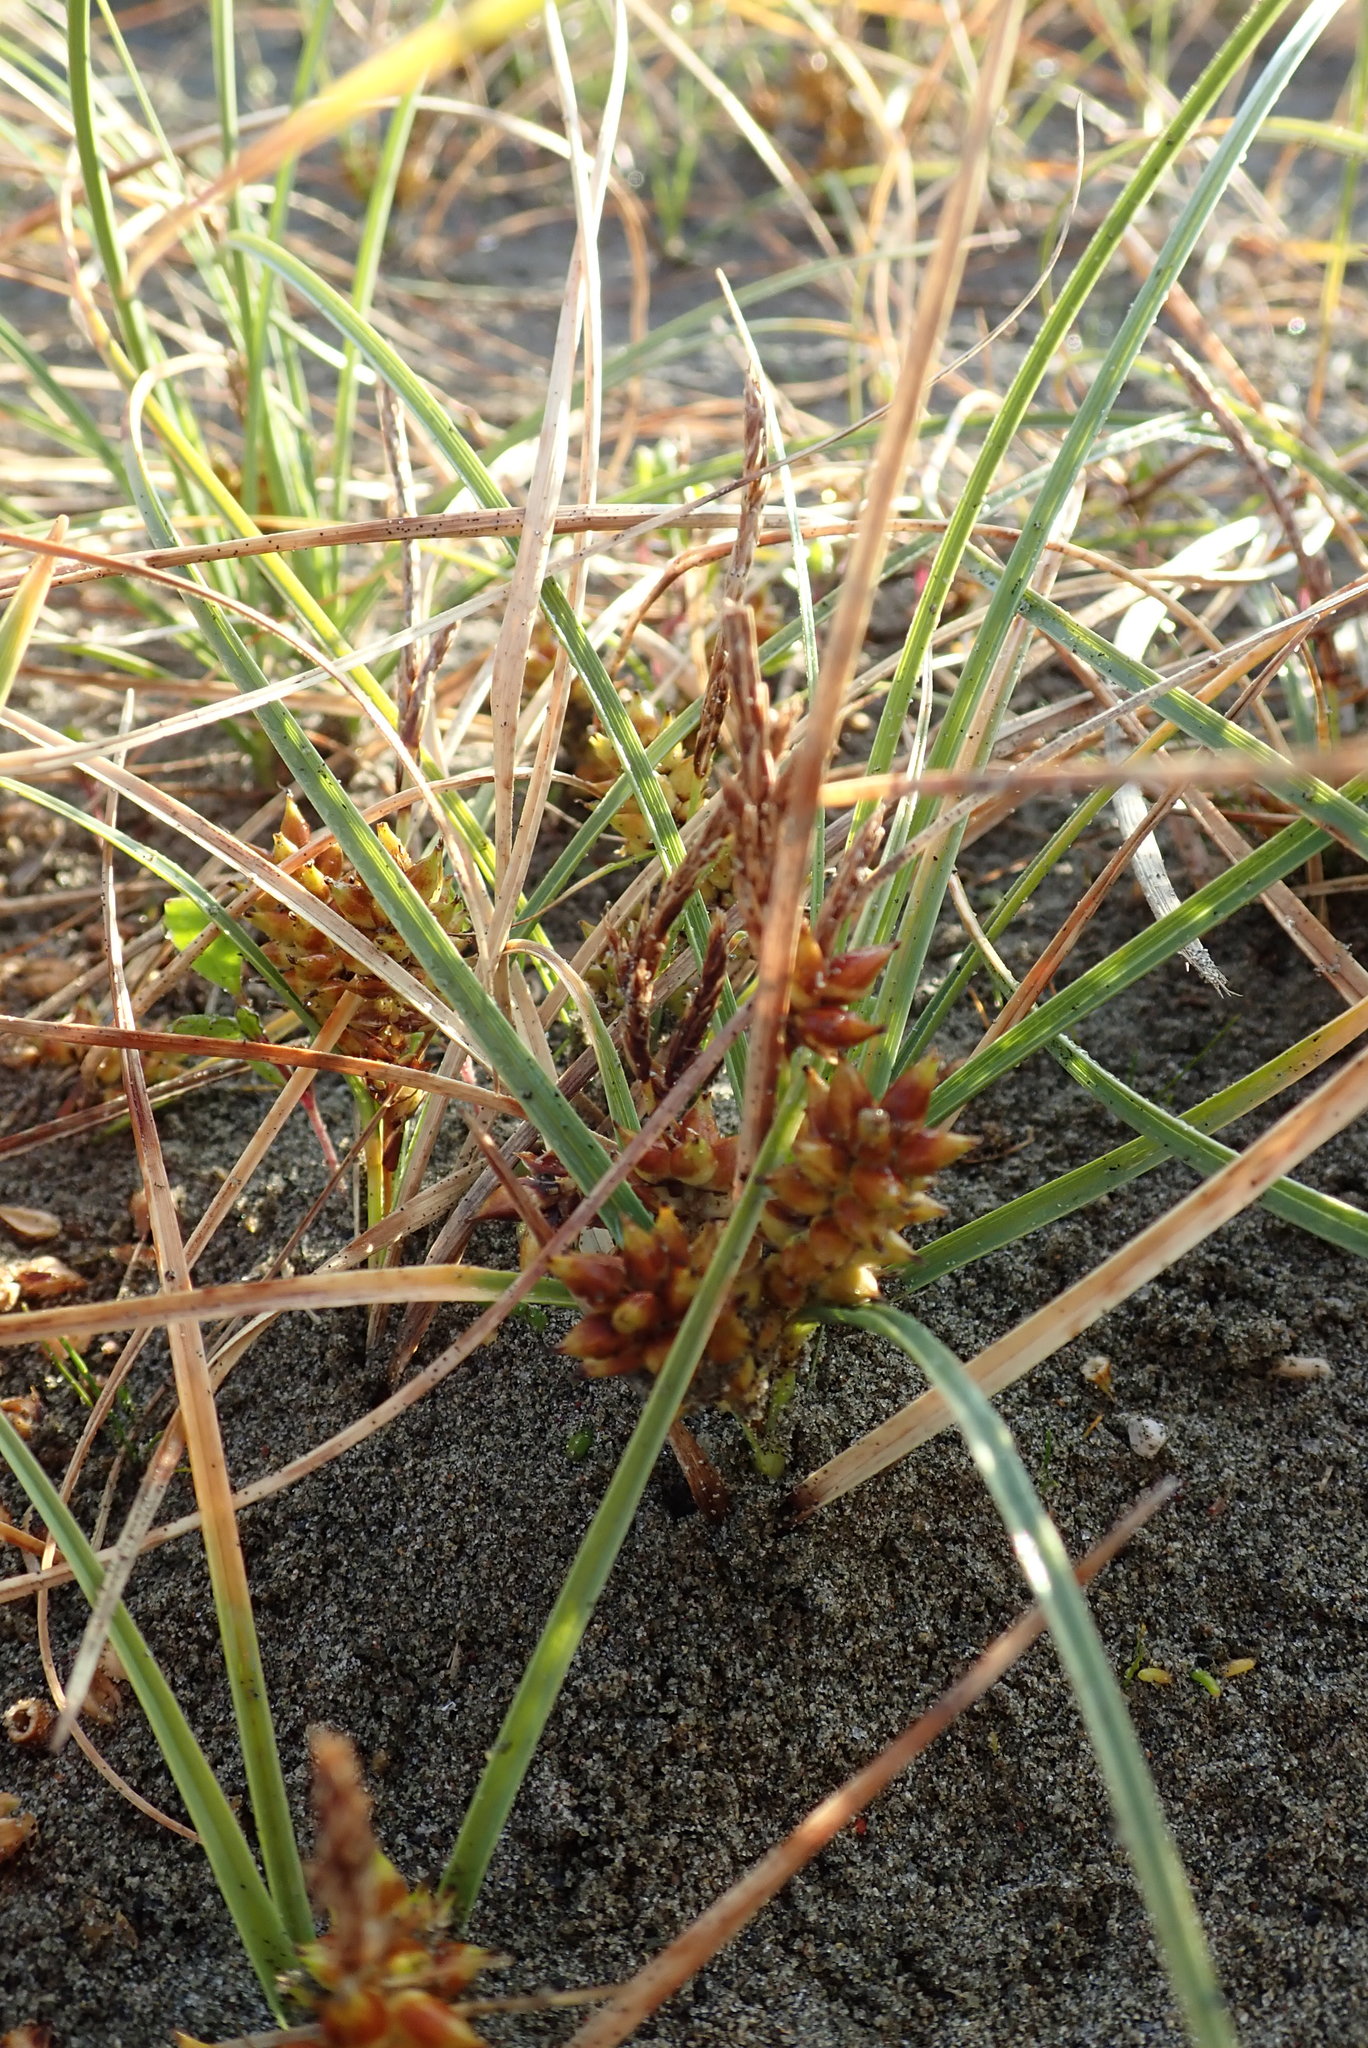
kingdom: Plantae
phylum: Tracheophyta
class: Liliopsida
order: Poales
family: Cyperaceae
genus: Carex
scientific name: Carex pumila
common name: Dwarf sedge
